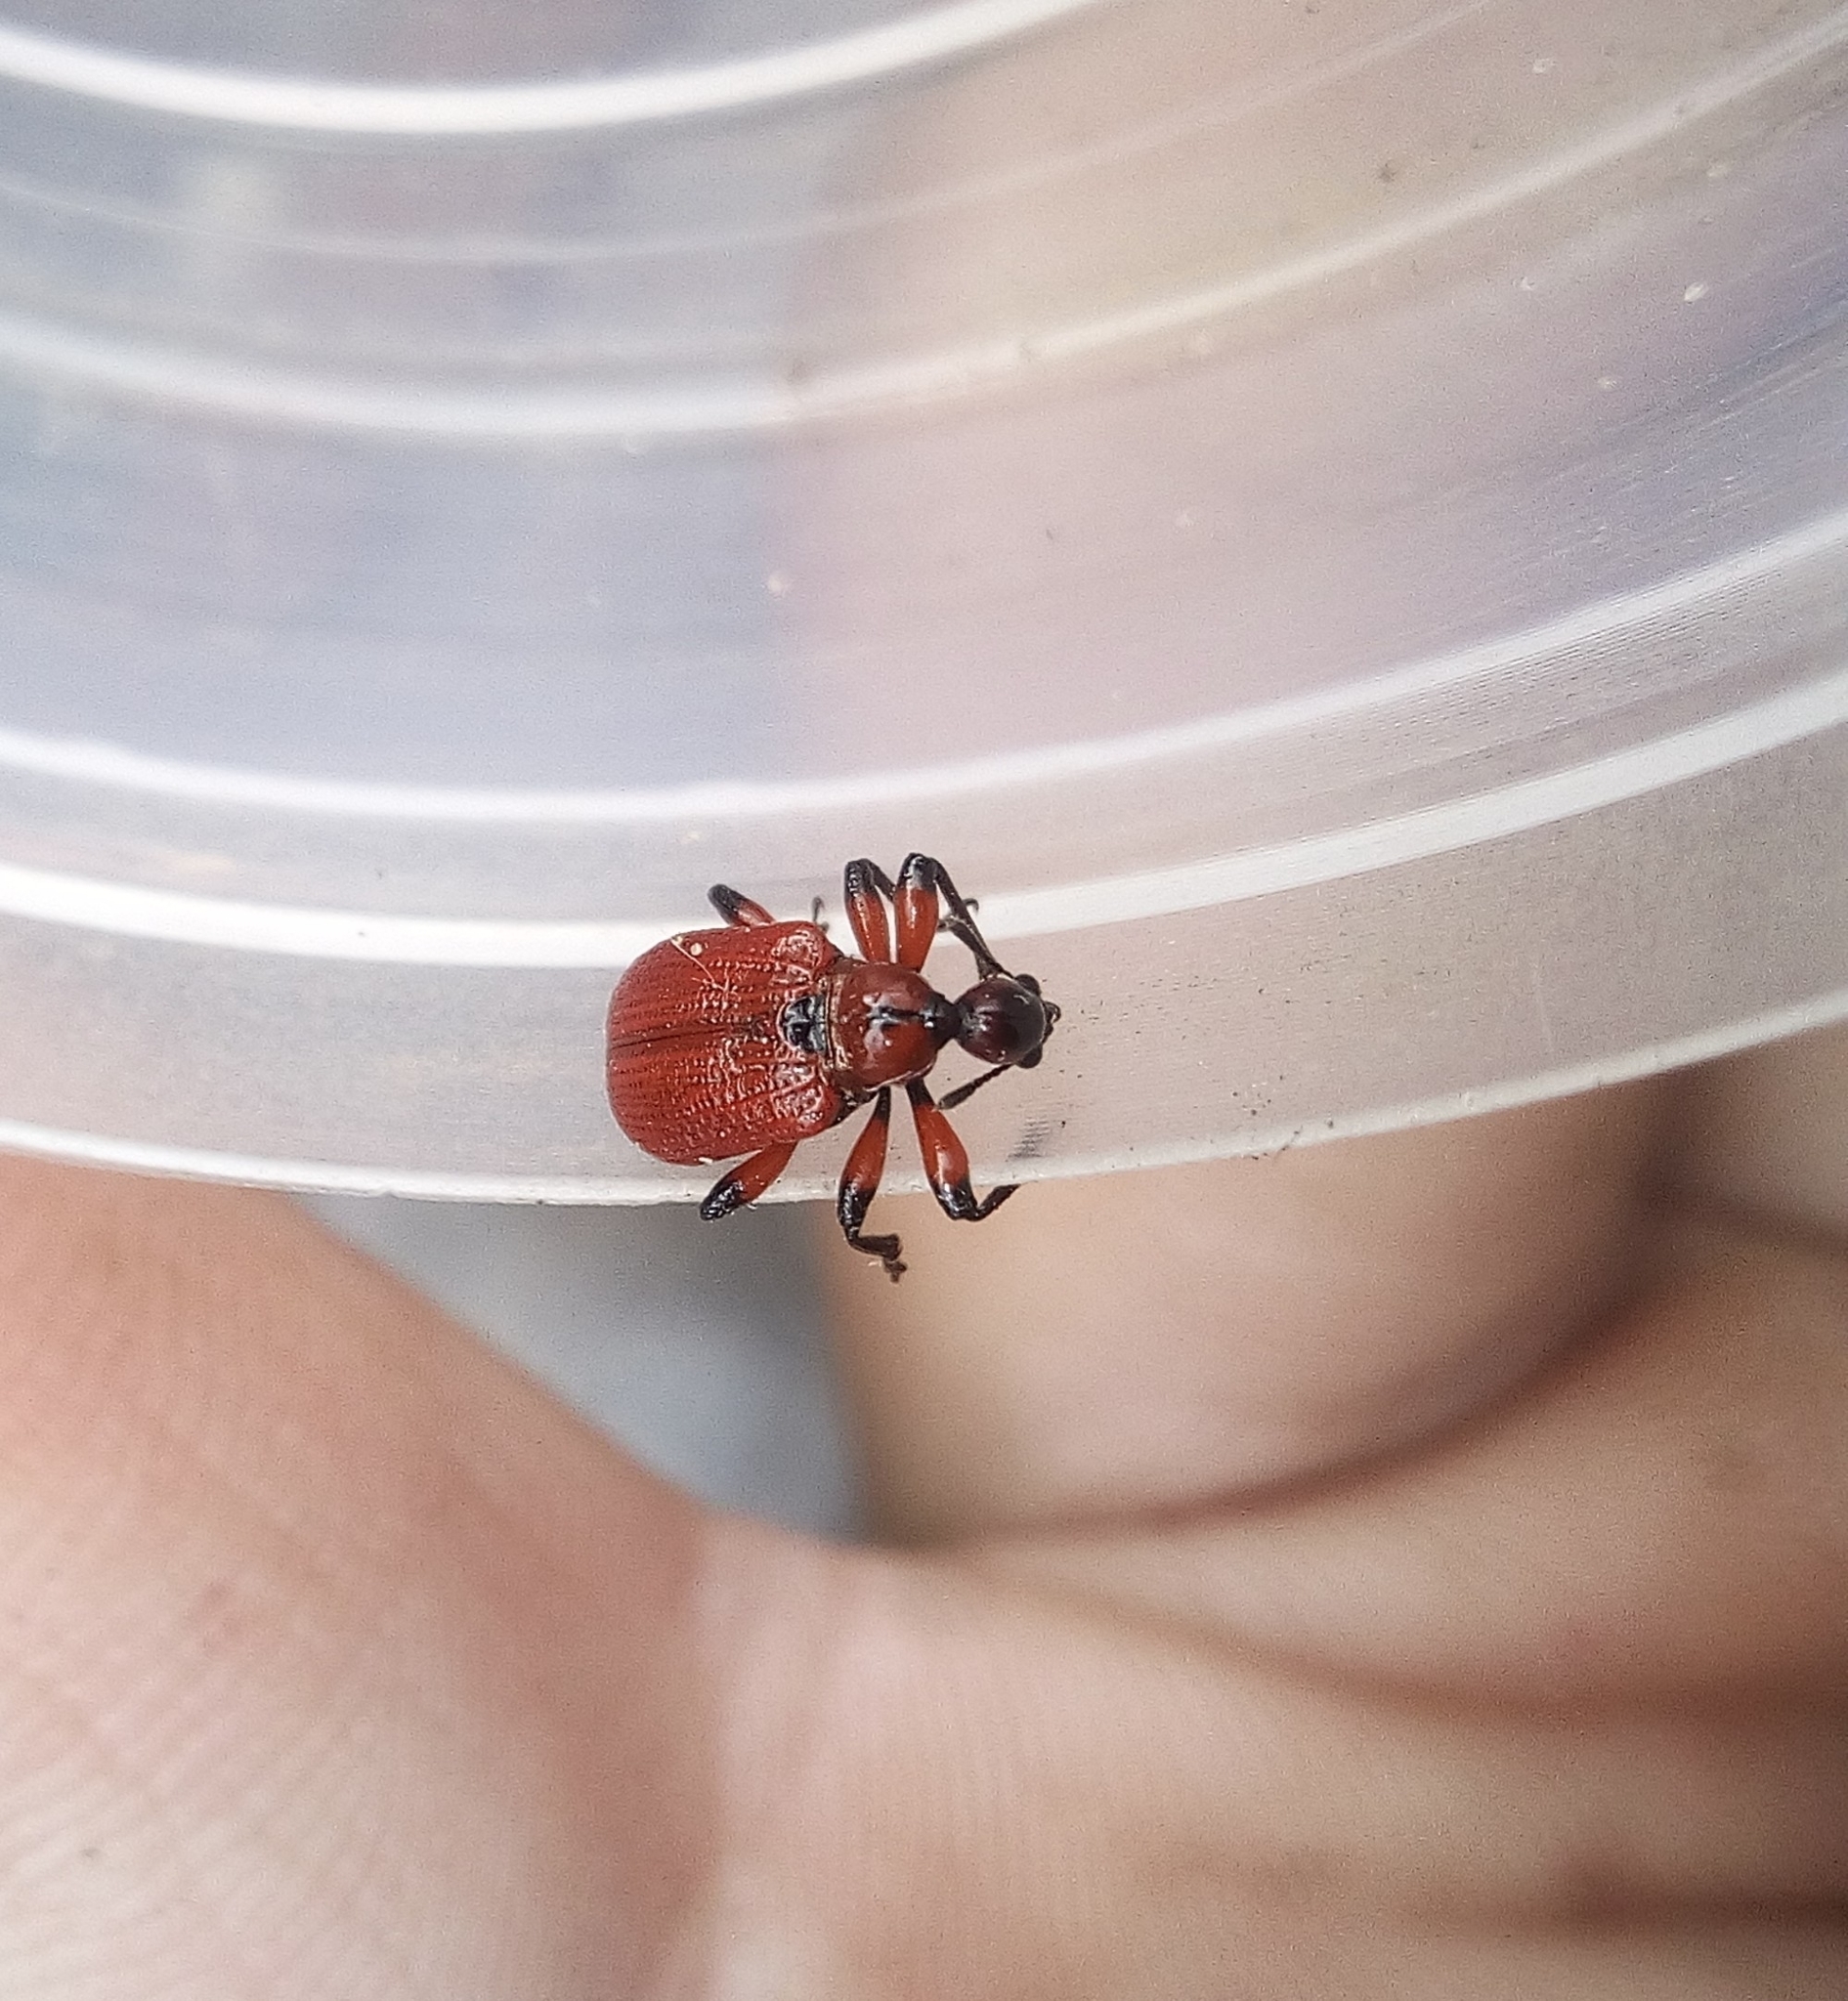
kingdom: Animalia
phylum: Arthropoda
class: Insecta
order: Coleoptera
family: Attelabidae
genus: Apoderus
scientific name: Apoderus coryli
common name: Hazel leaf roller
